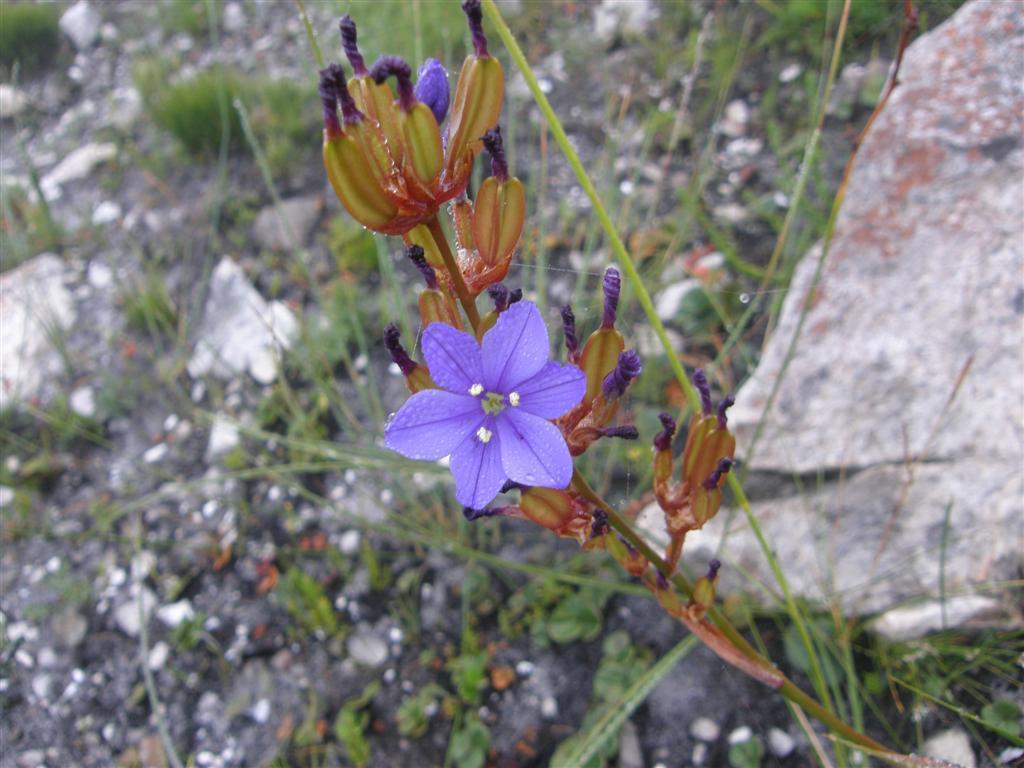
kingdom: Plantae
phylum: Tracheophyta
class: Liliopsida
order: Asparagales
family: Iridaceae
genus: Aristea
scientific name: Aristea bakeri
